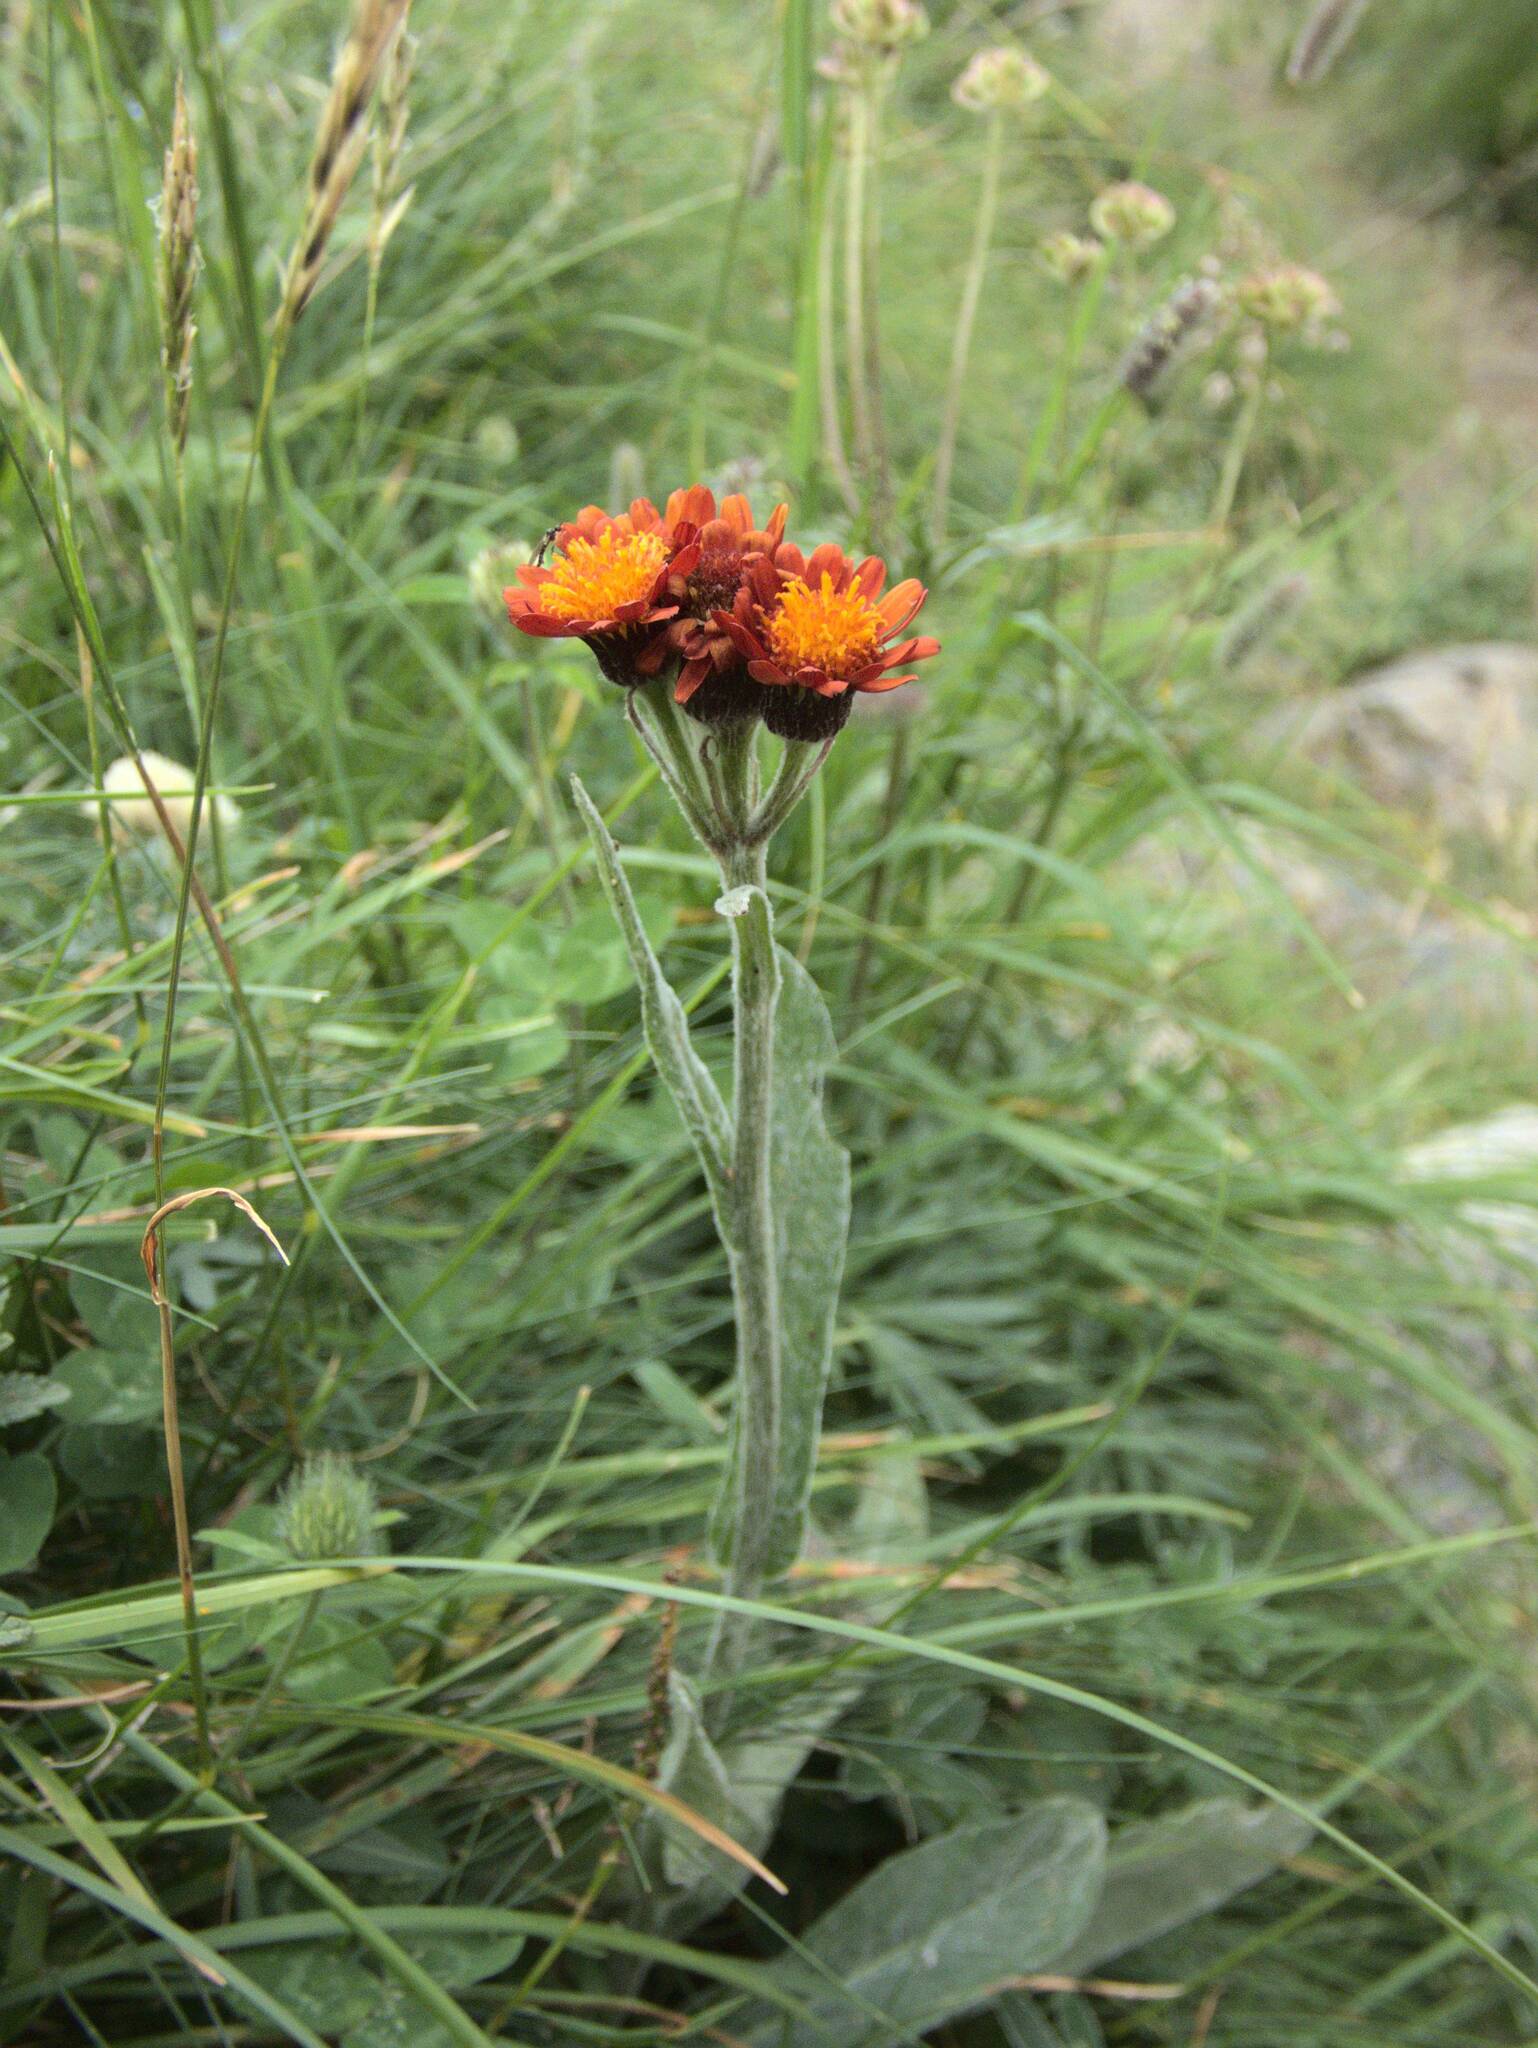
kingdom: Plantae
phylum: Tracheophyta
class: Magnoliopsida
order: Asterales
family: Asteraceae
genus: Pilosella
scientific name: Pilosella aurantiaca
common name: Fox-and-cubs
